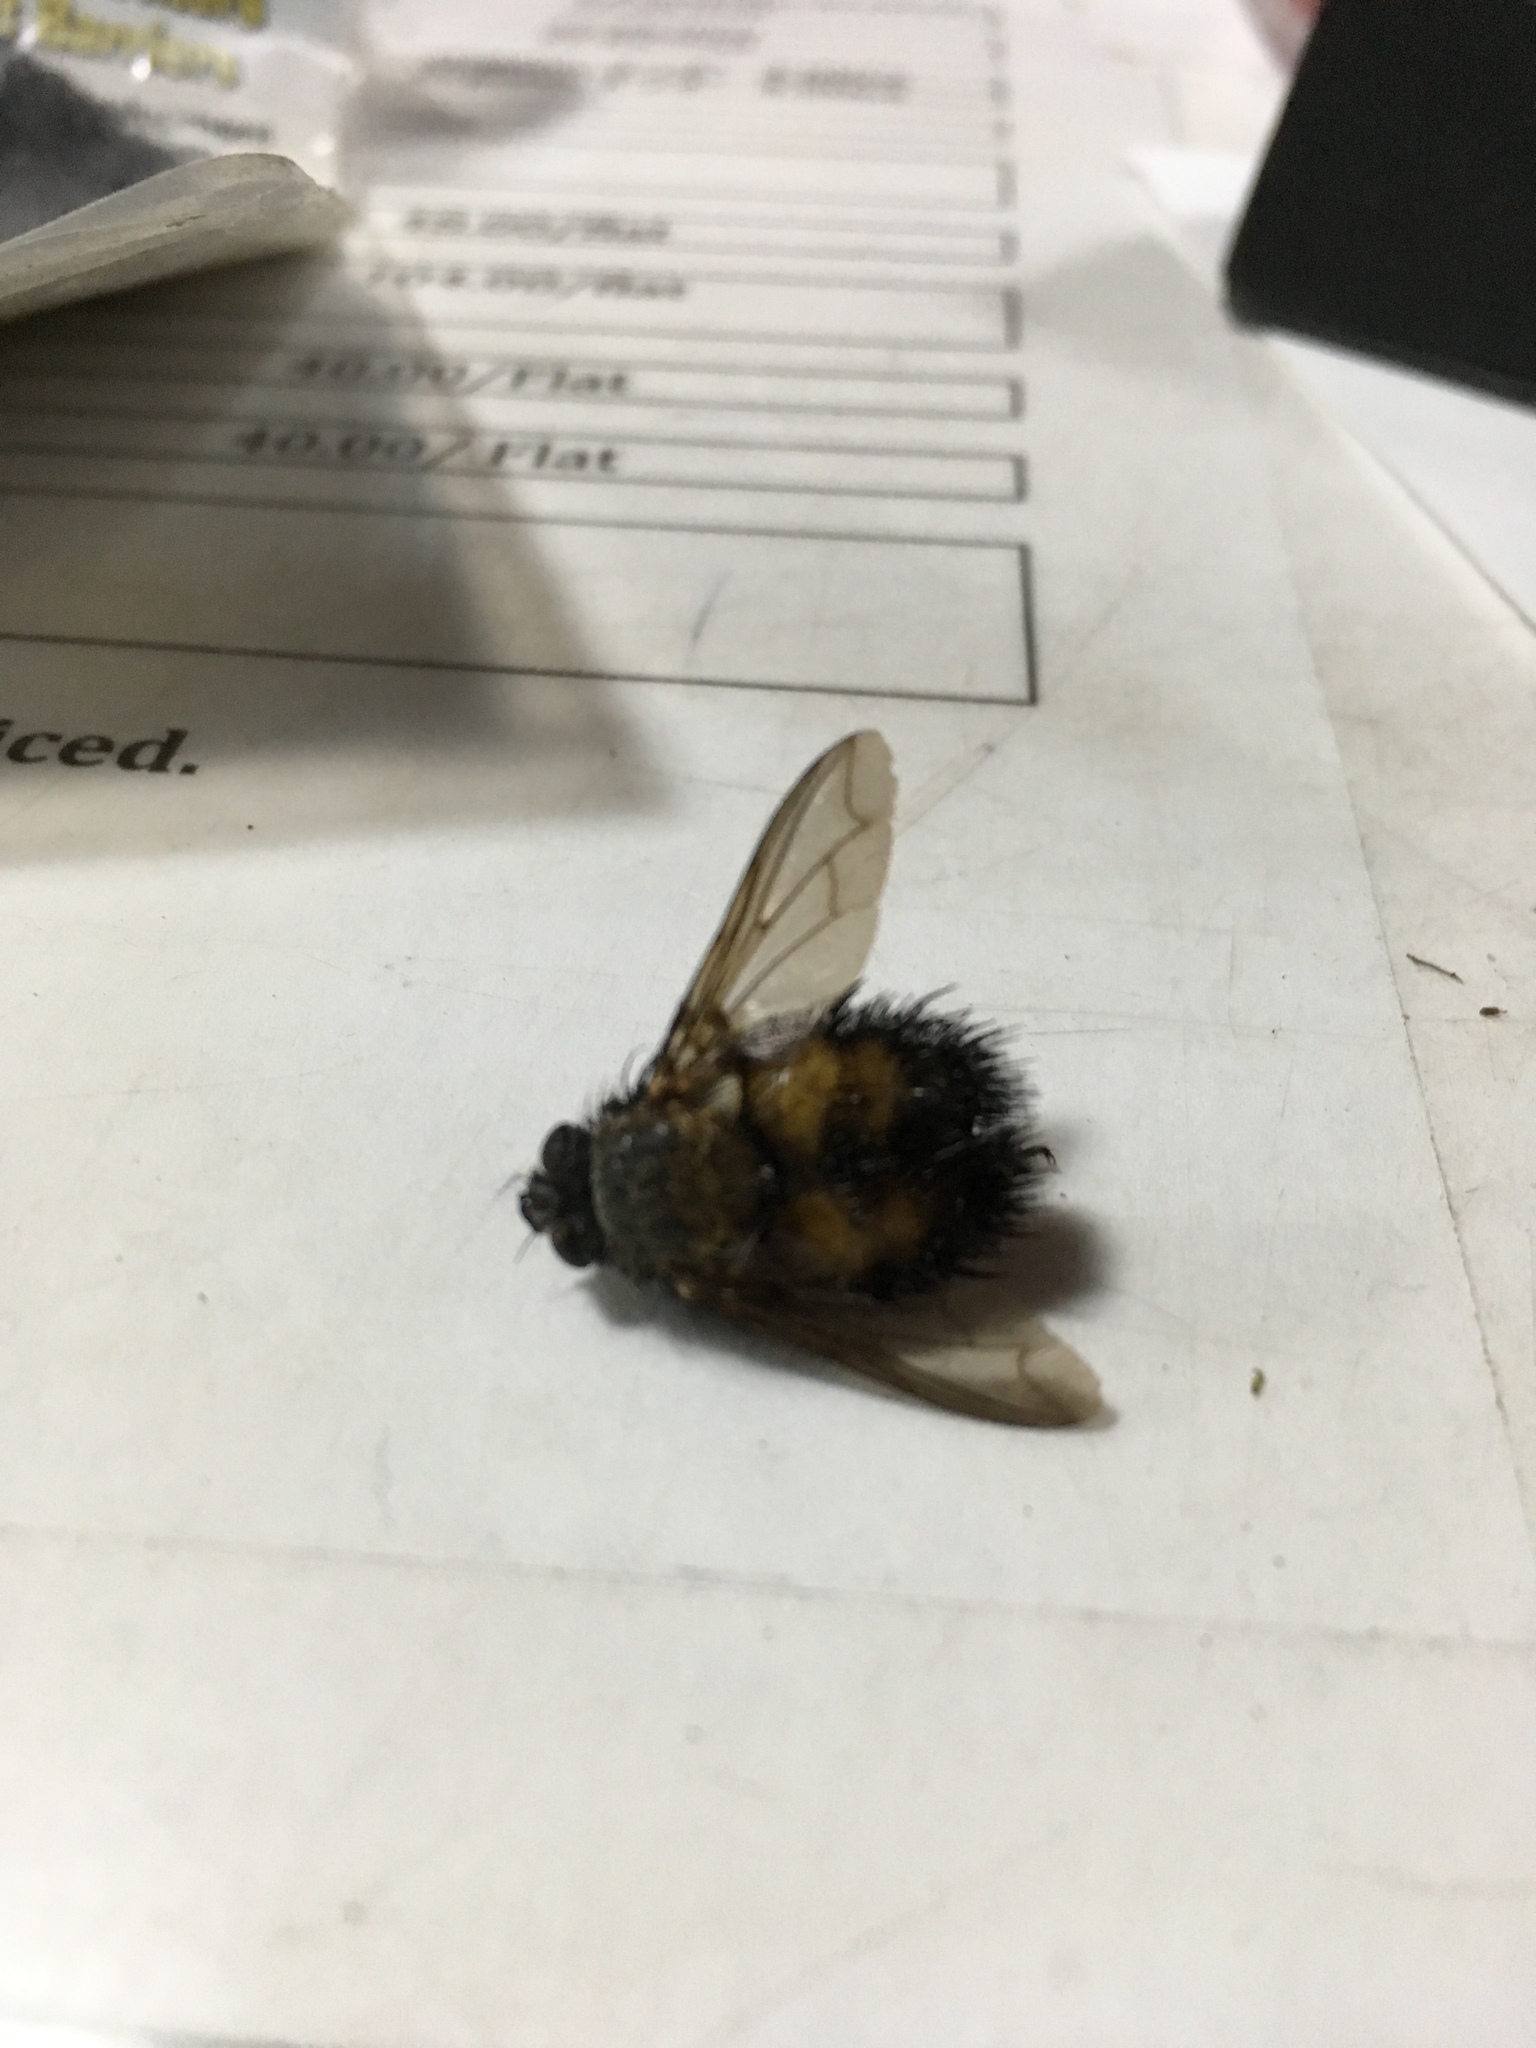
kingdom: Animalia
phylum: Arthropoda
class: Insecta
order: Diptera
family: Tachinidae
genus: Paradejeania
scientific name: Paradejeania rutilioides
